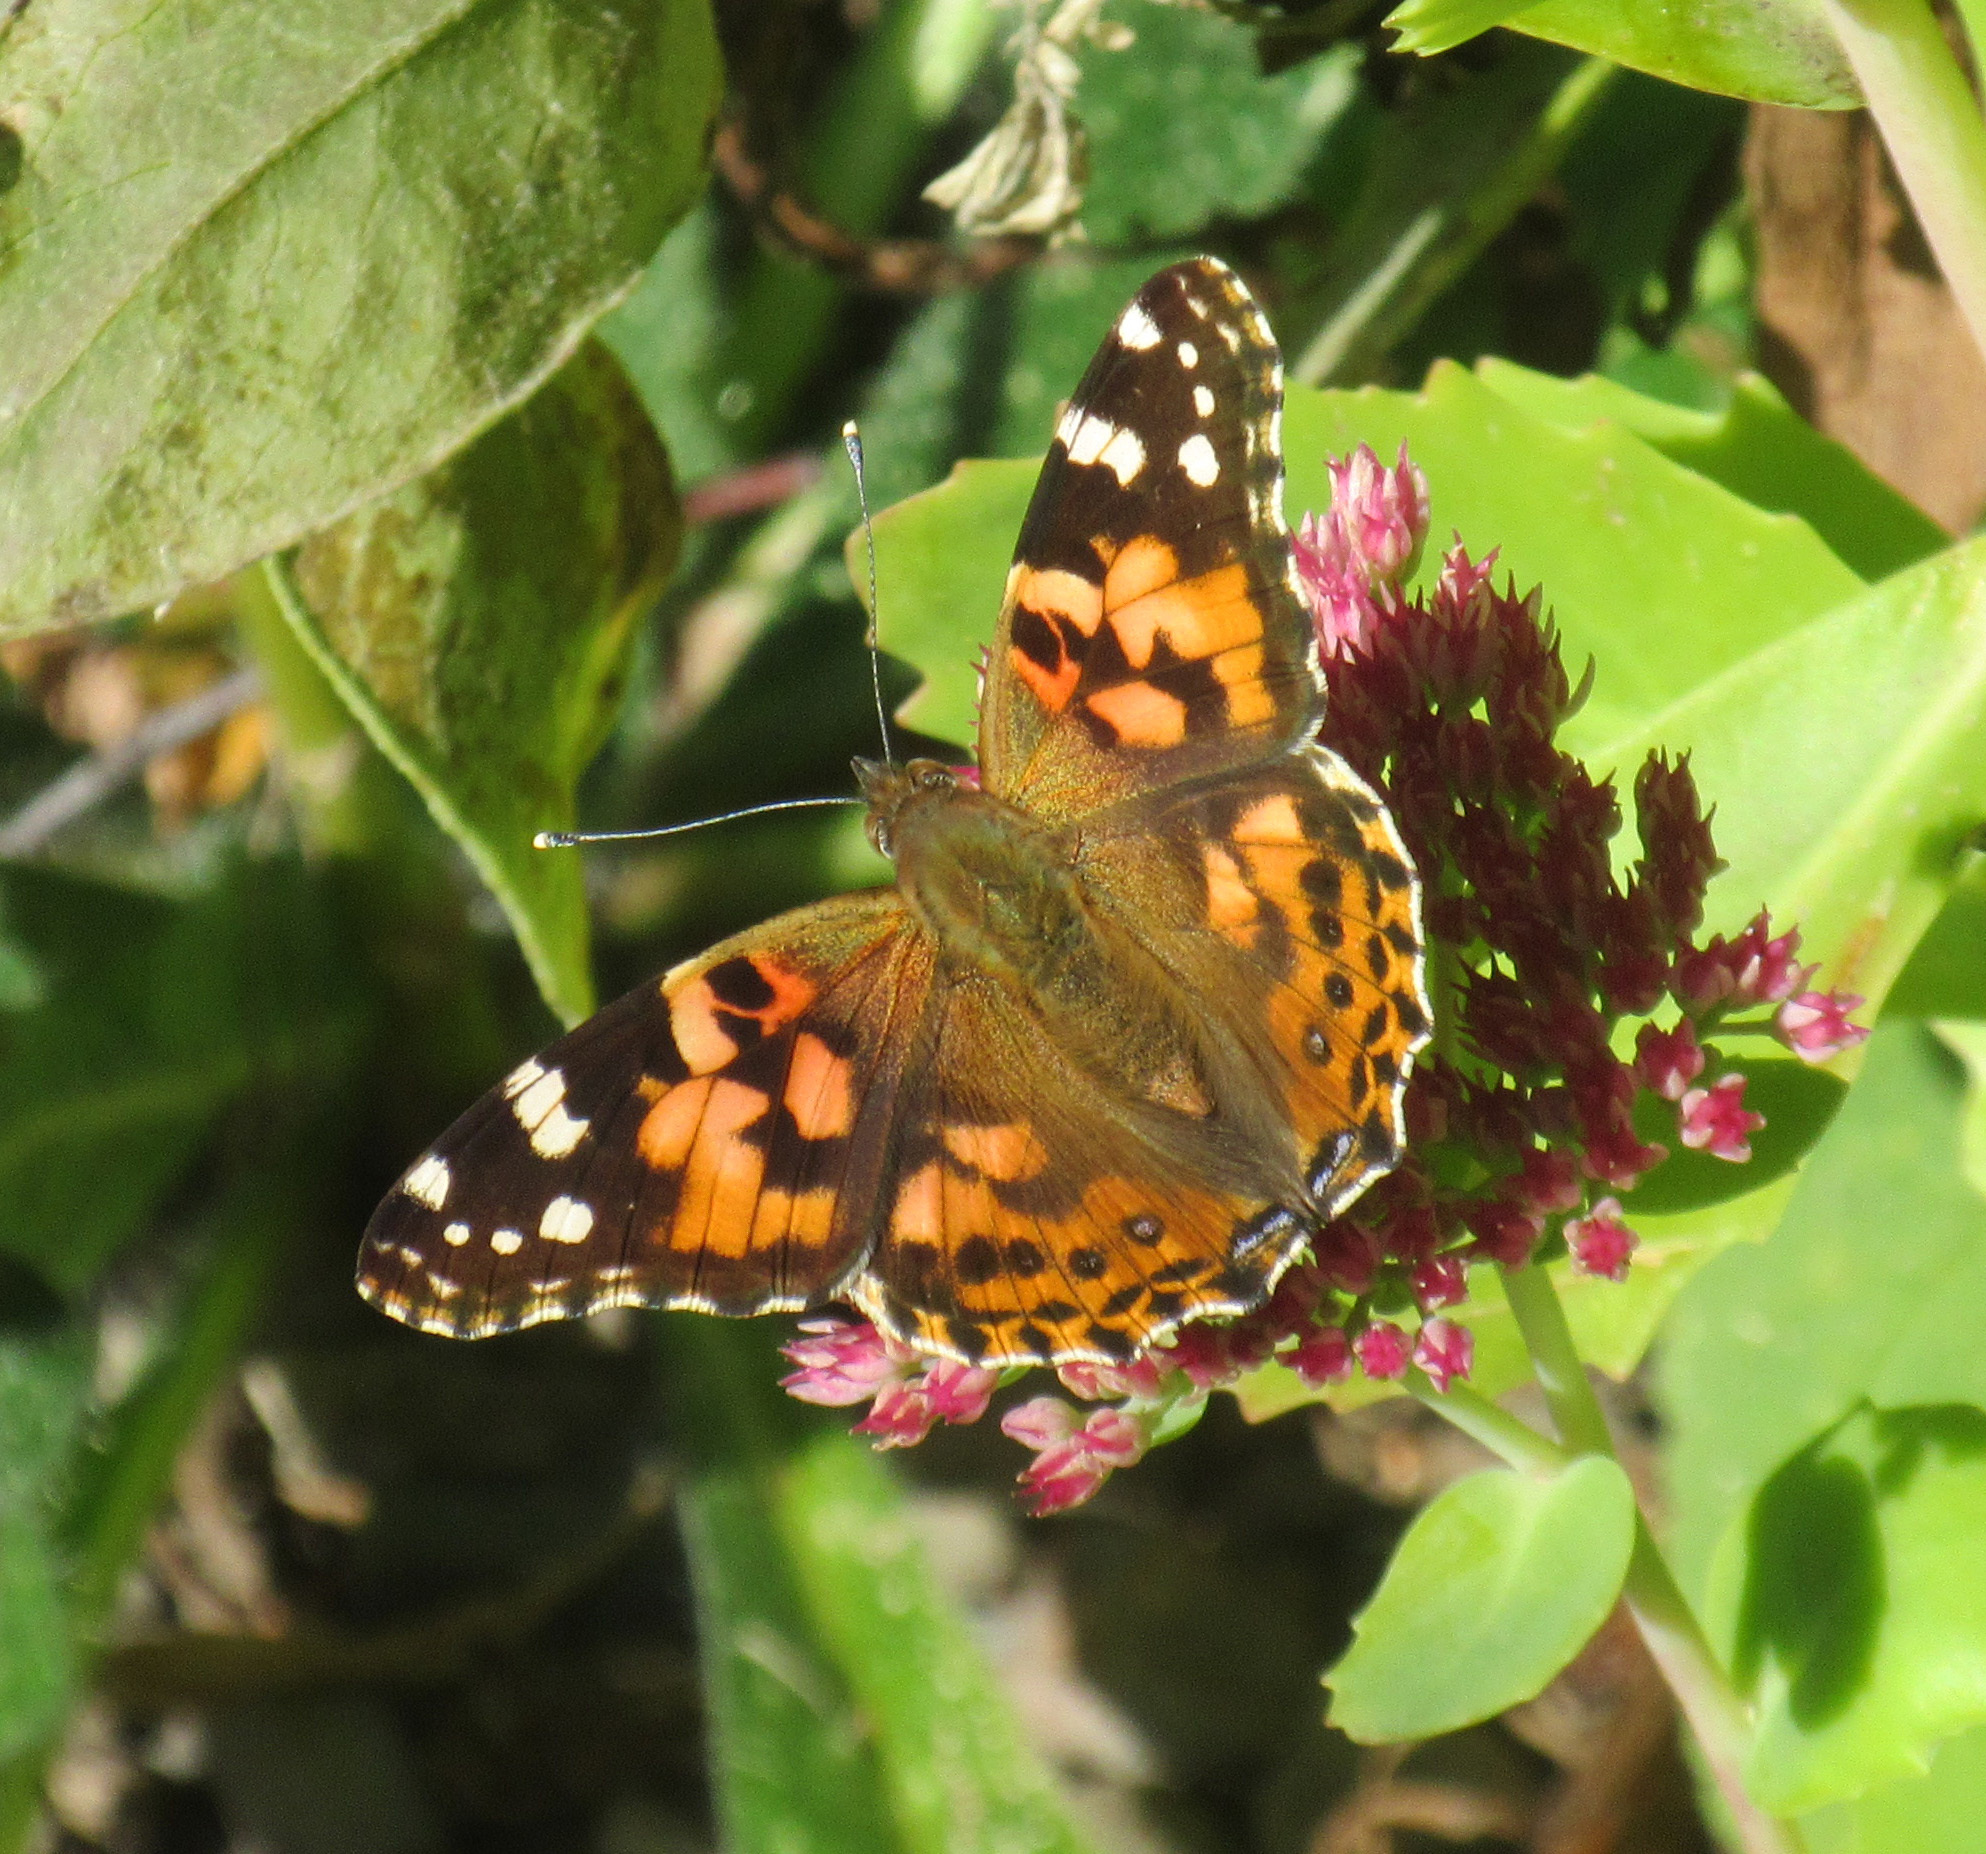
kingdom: Animalia
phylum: Arthropoda
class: Insecta
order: Lepidoptera
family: Nymphalidae
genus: Vanessa
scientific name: Vanessa cardui
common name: Painted lady
